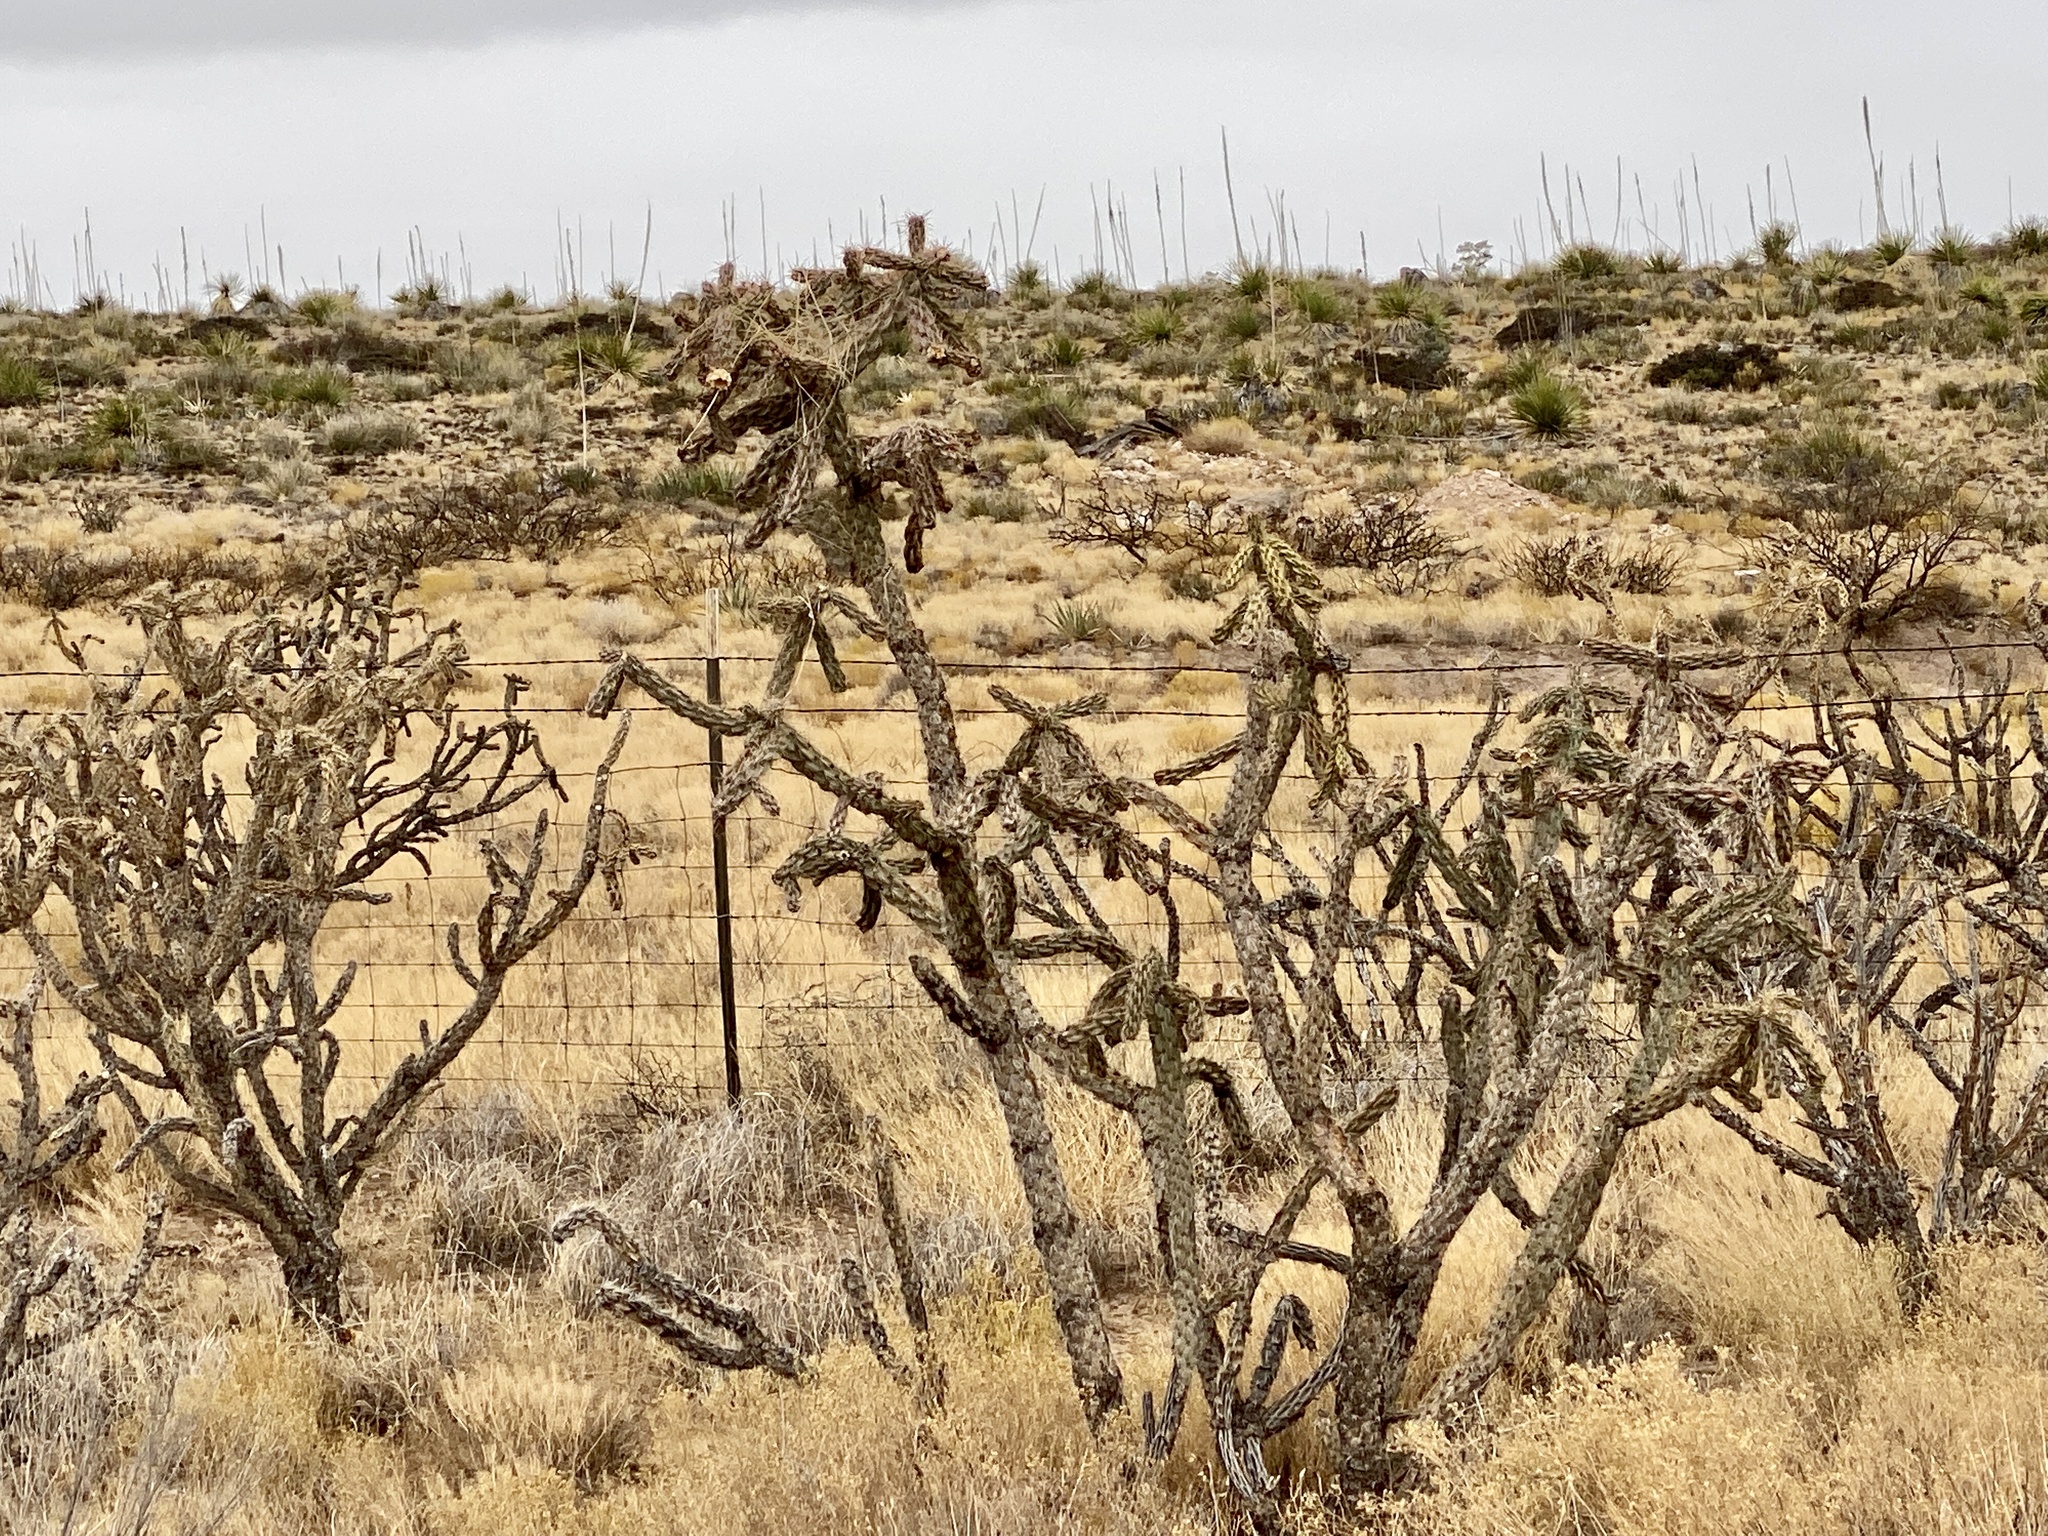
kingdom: Plantae
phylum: Tracheophyta
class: Magnoliopsida
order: Caryophyllales
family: Cactaceae
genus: Cylindropuntia
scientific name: Cylindropuntia imbricata
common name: Candelabrum cactus
